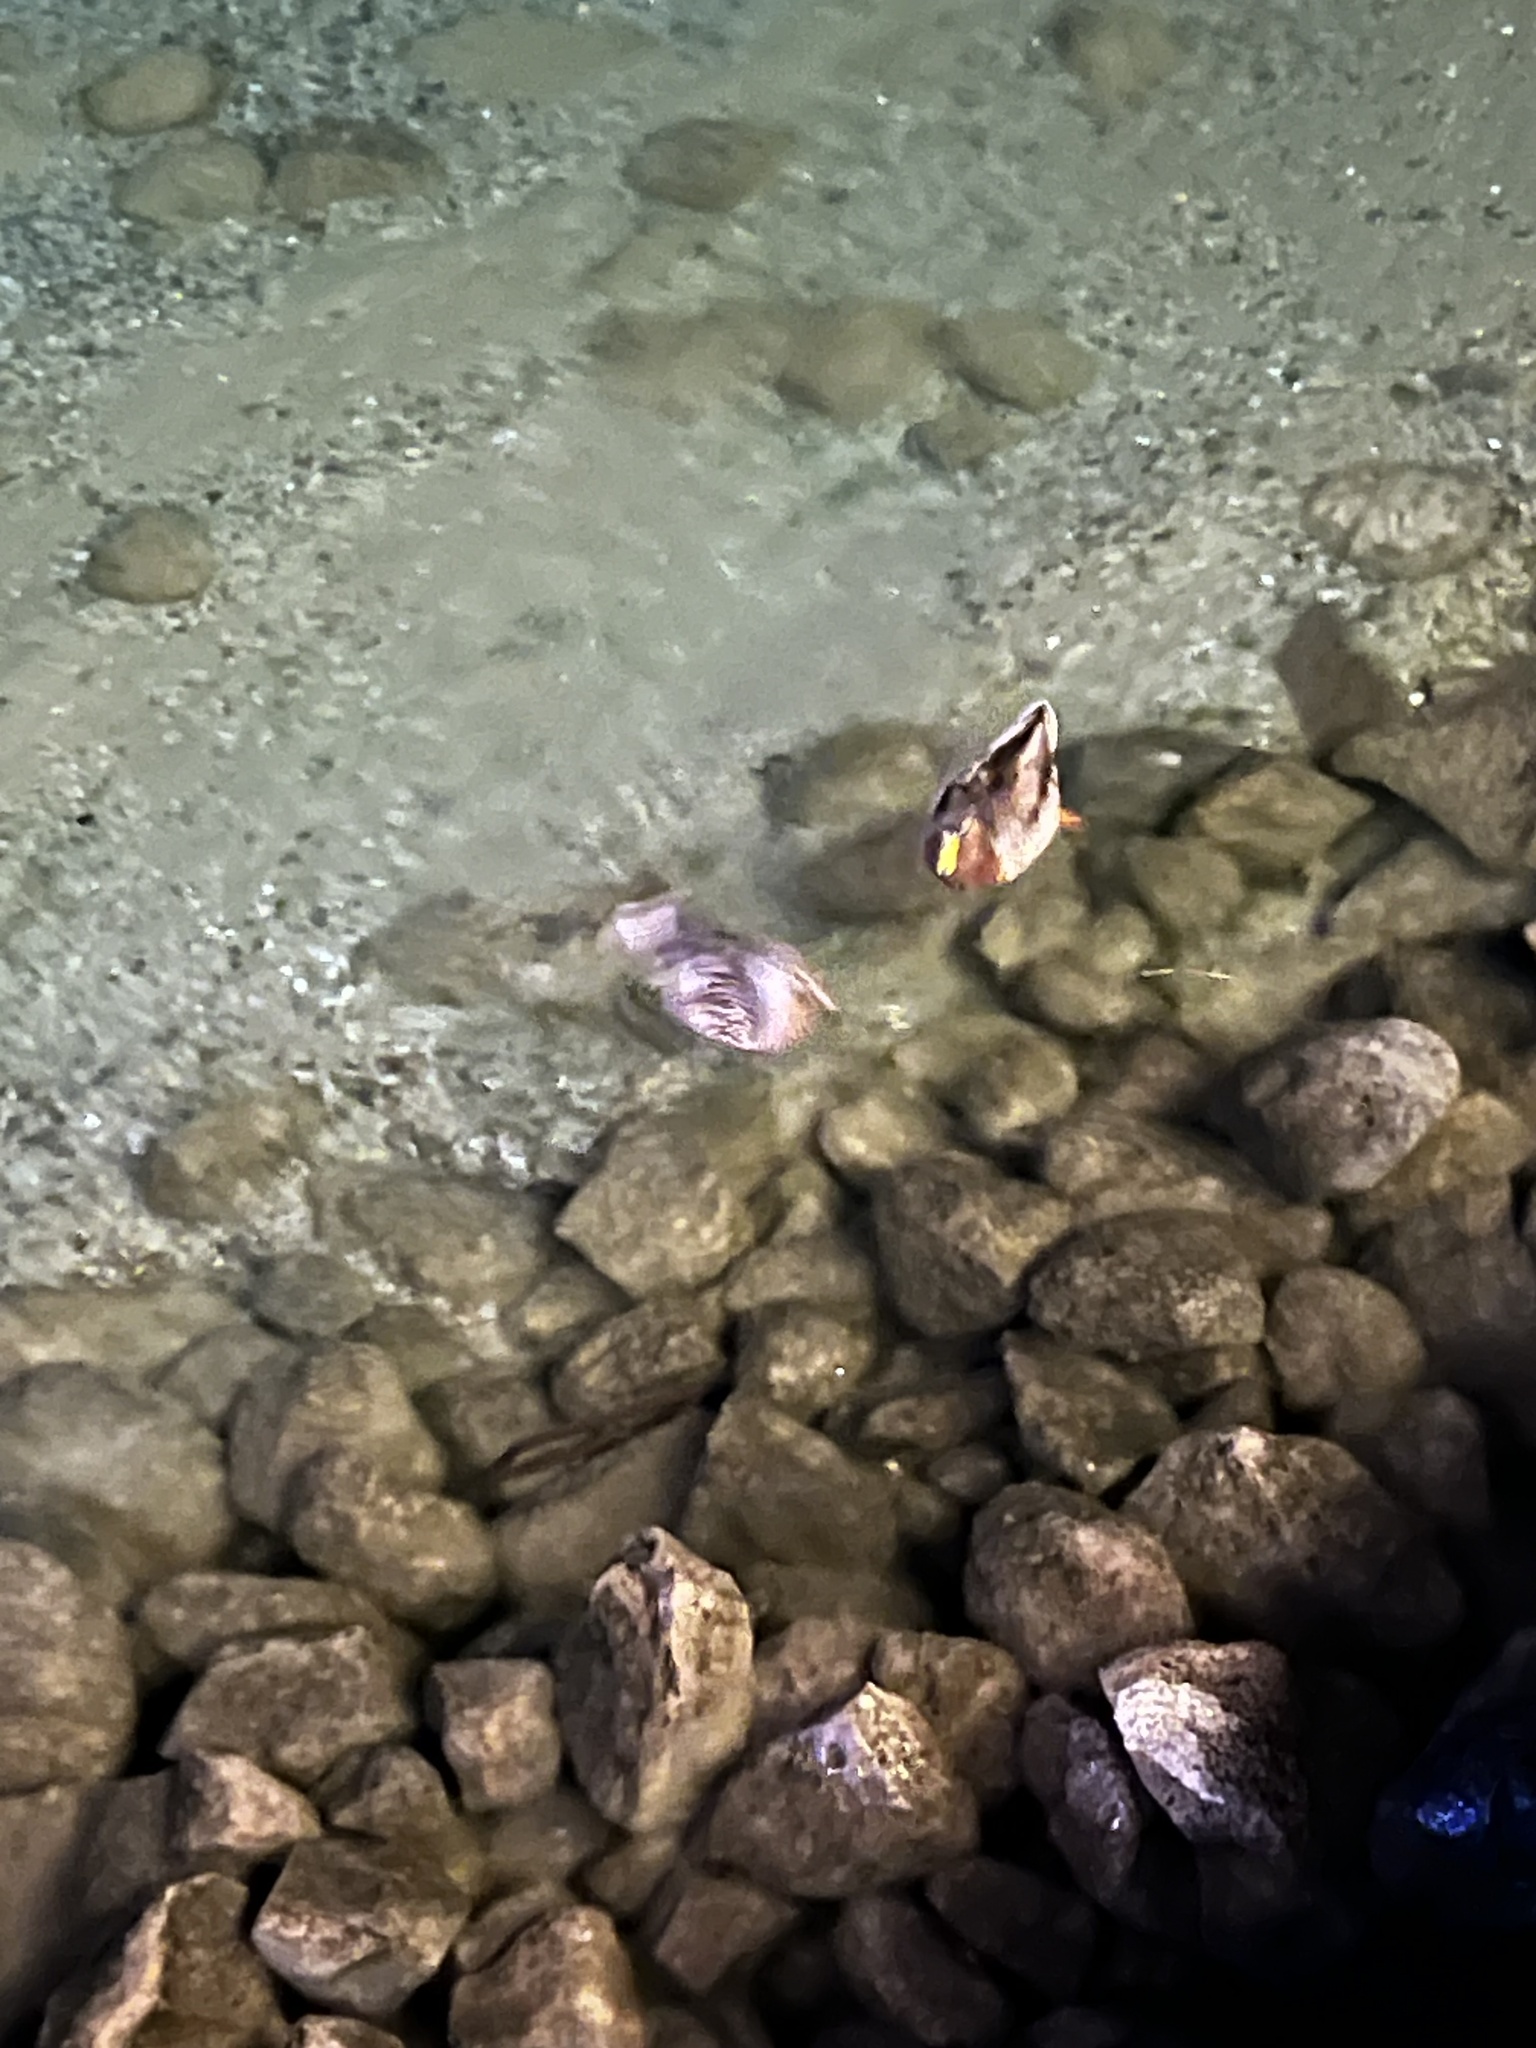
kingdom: Animalia
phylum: Chordata
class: Aves
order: Anseriformes
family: Anatidae
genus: Anas
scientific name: Anas platyrhynchos
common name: Mallard
